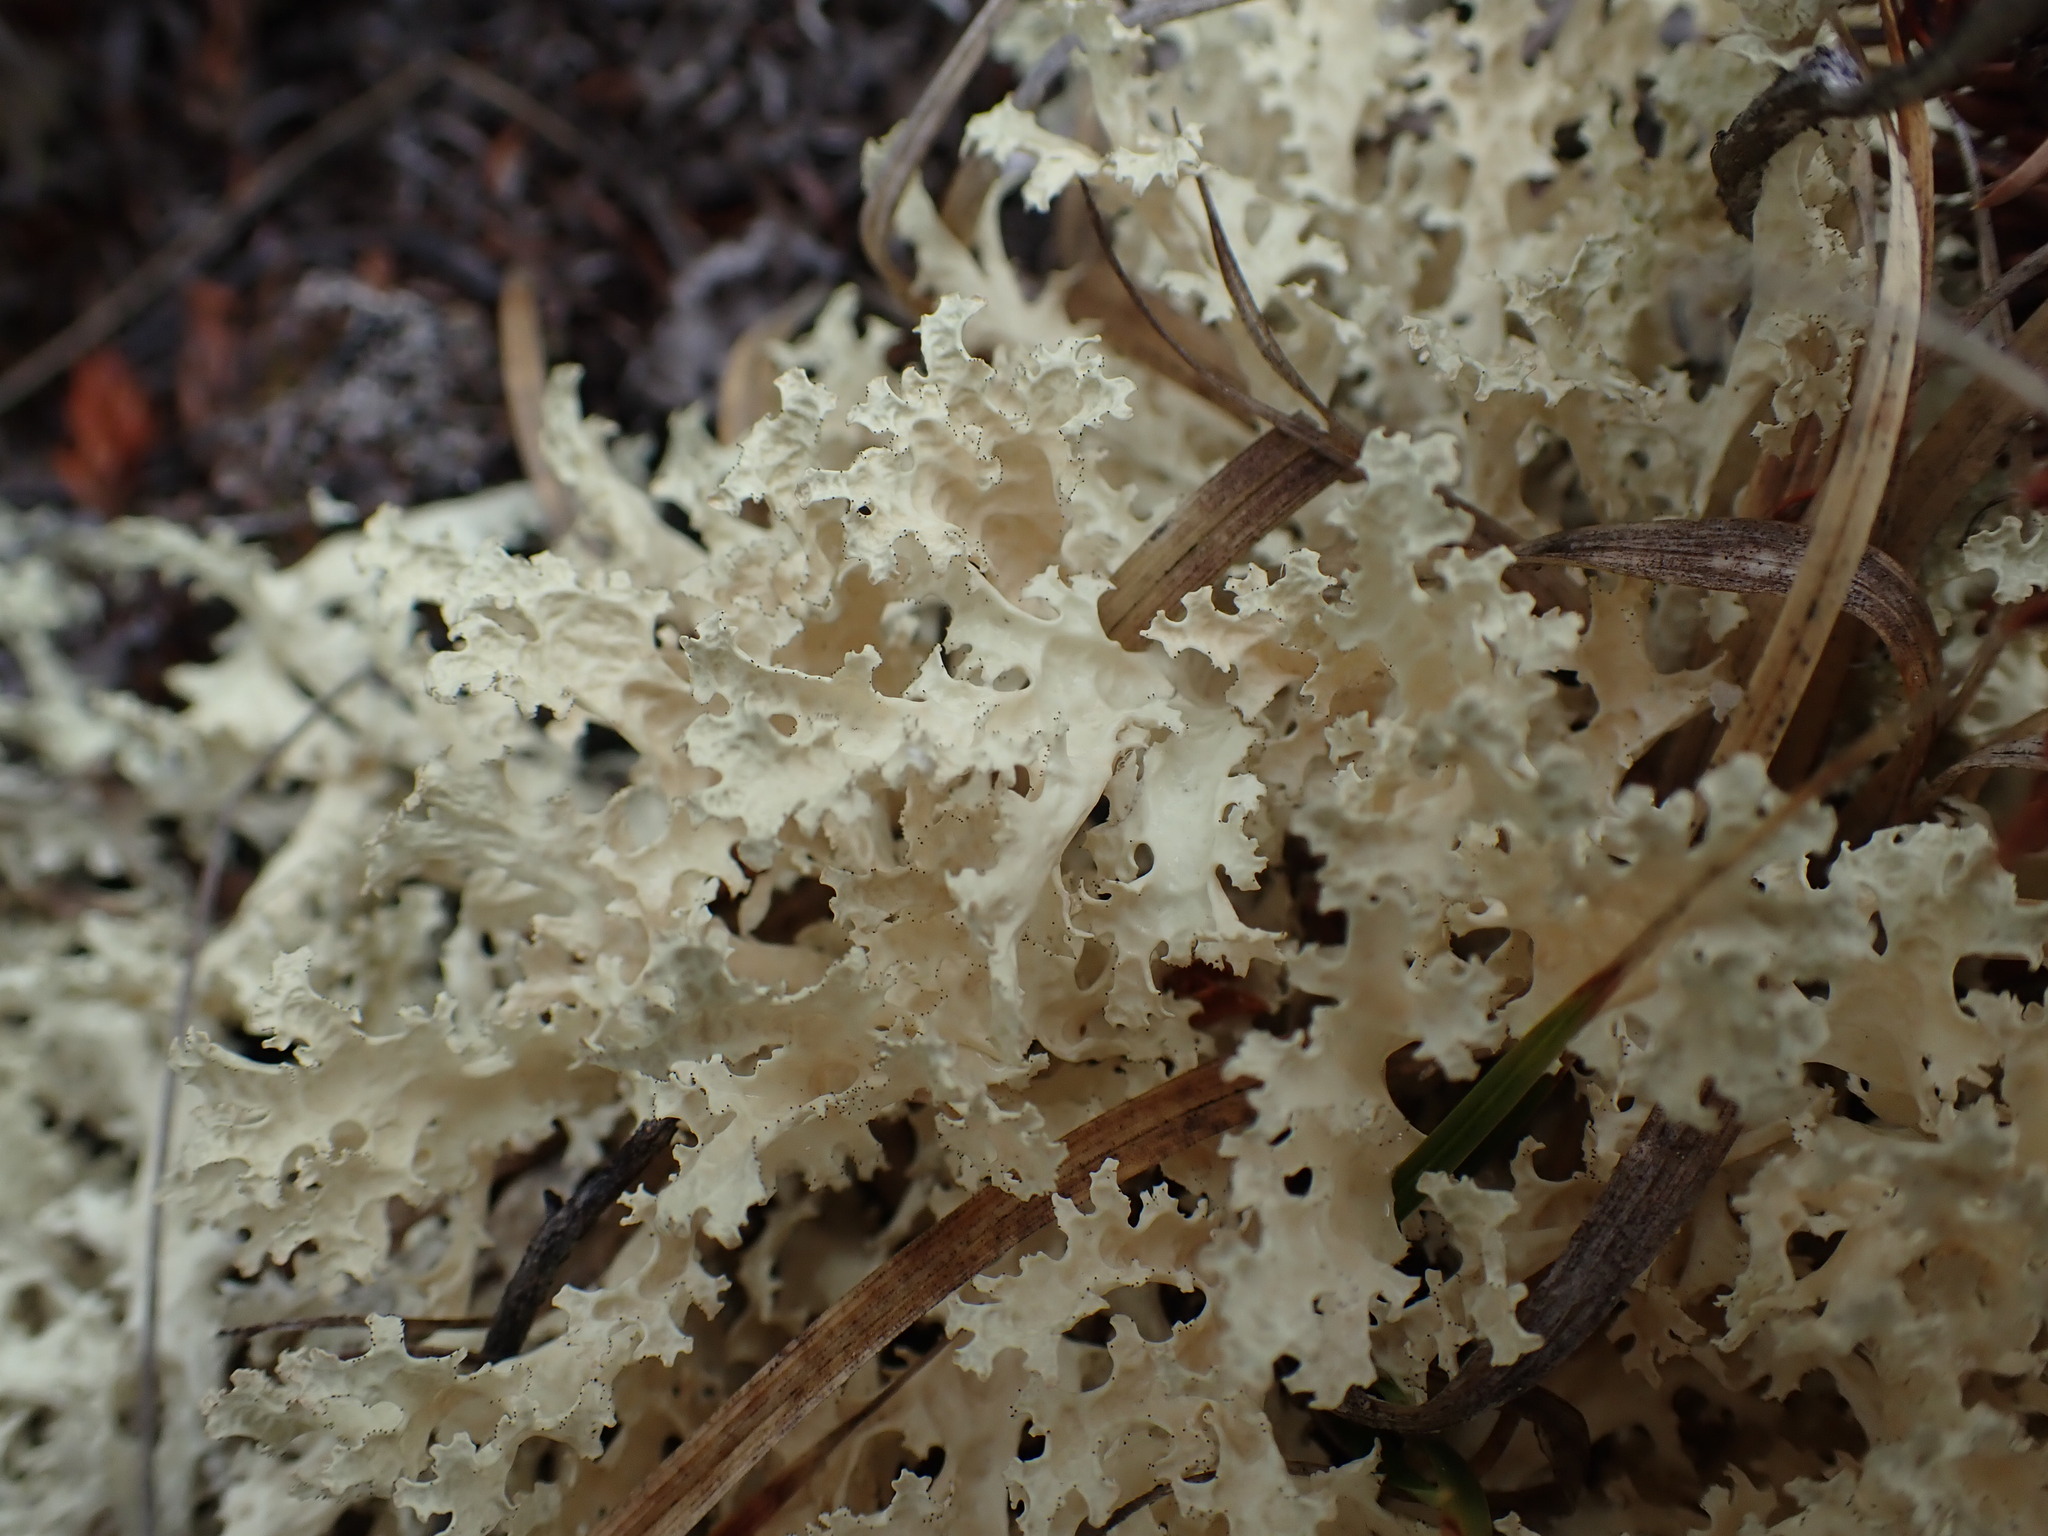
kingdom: Fungi
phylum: Ascomycota
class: Lecanoromycetes
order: Lecanorales
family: Parmeliaceae
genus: Nephromopsis
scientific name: Nephromopsis nivalis
